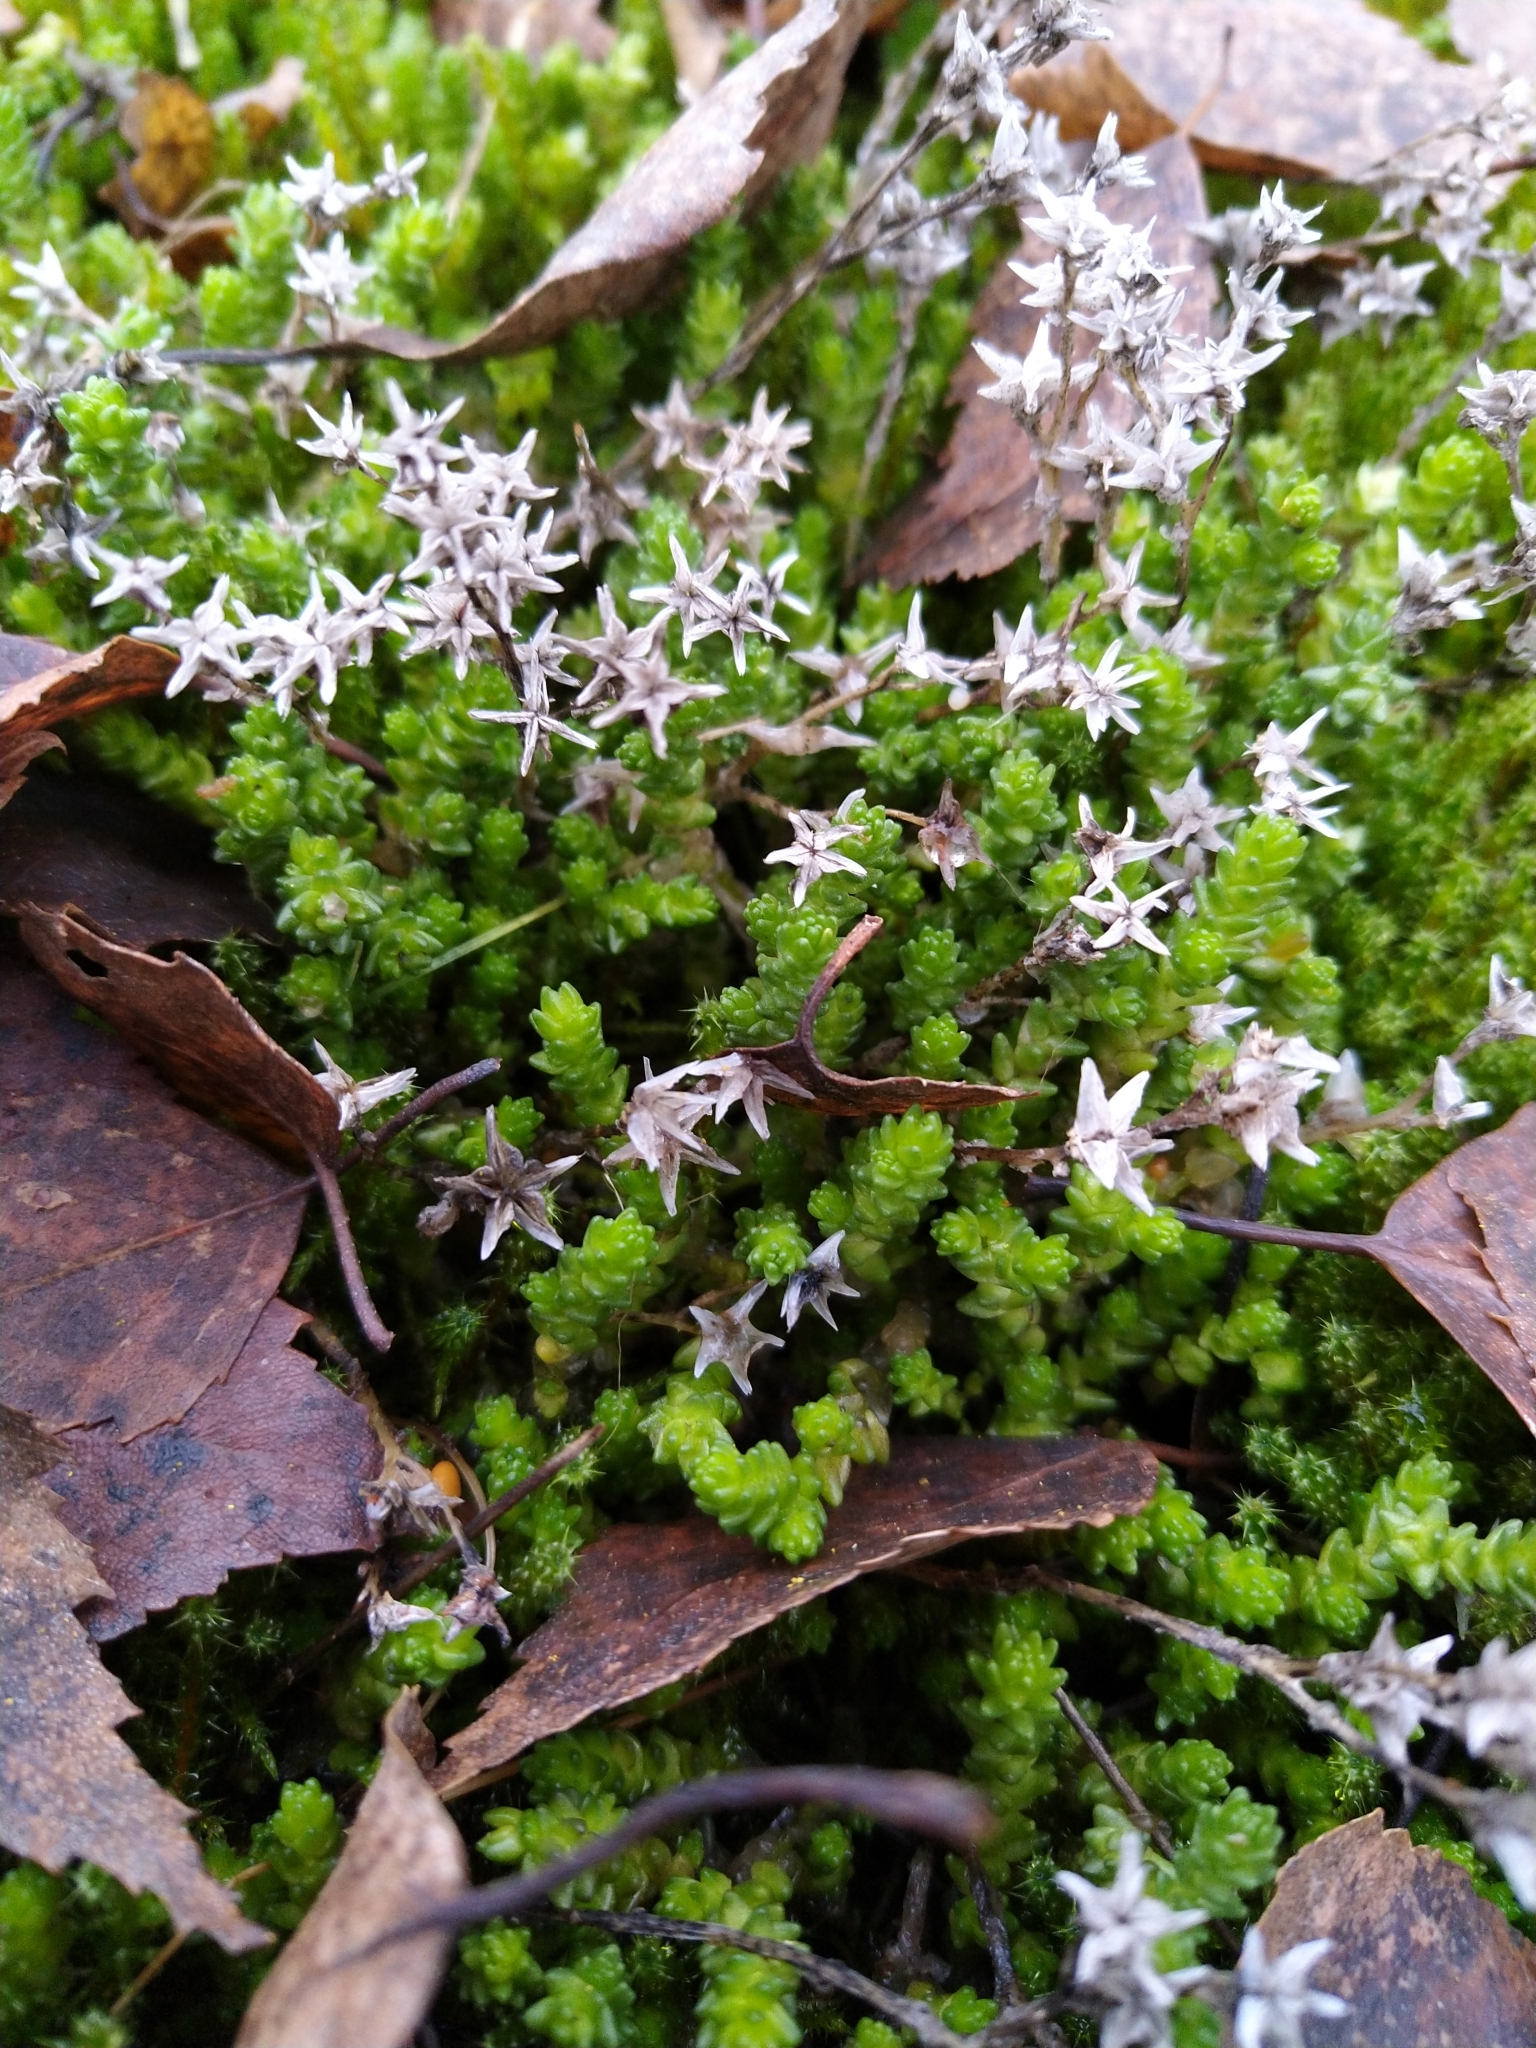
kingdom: Plantae
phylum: Tracheophyta
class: Magnoliopsida
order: Saxifragales
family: Crassulaceae
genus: Sedum
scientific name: Sedum acre
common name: Biting stonecrop
